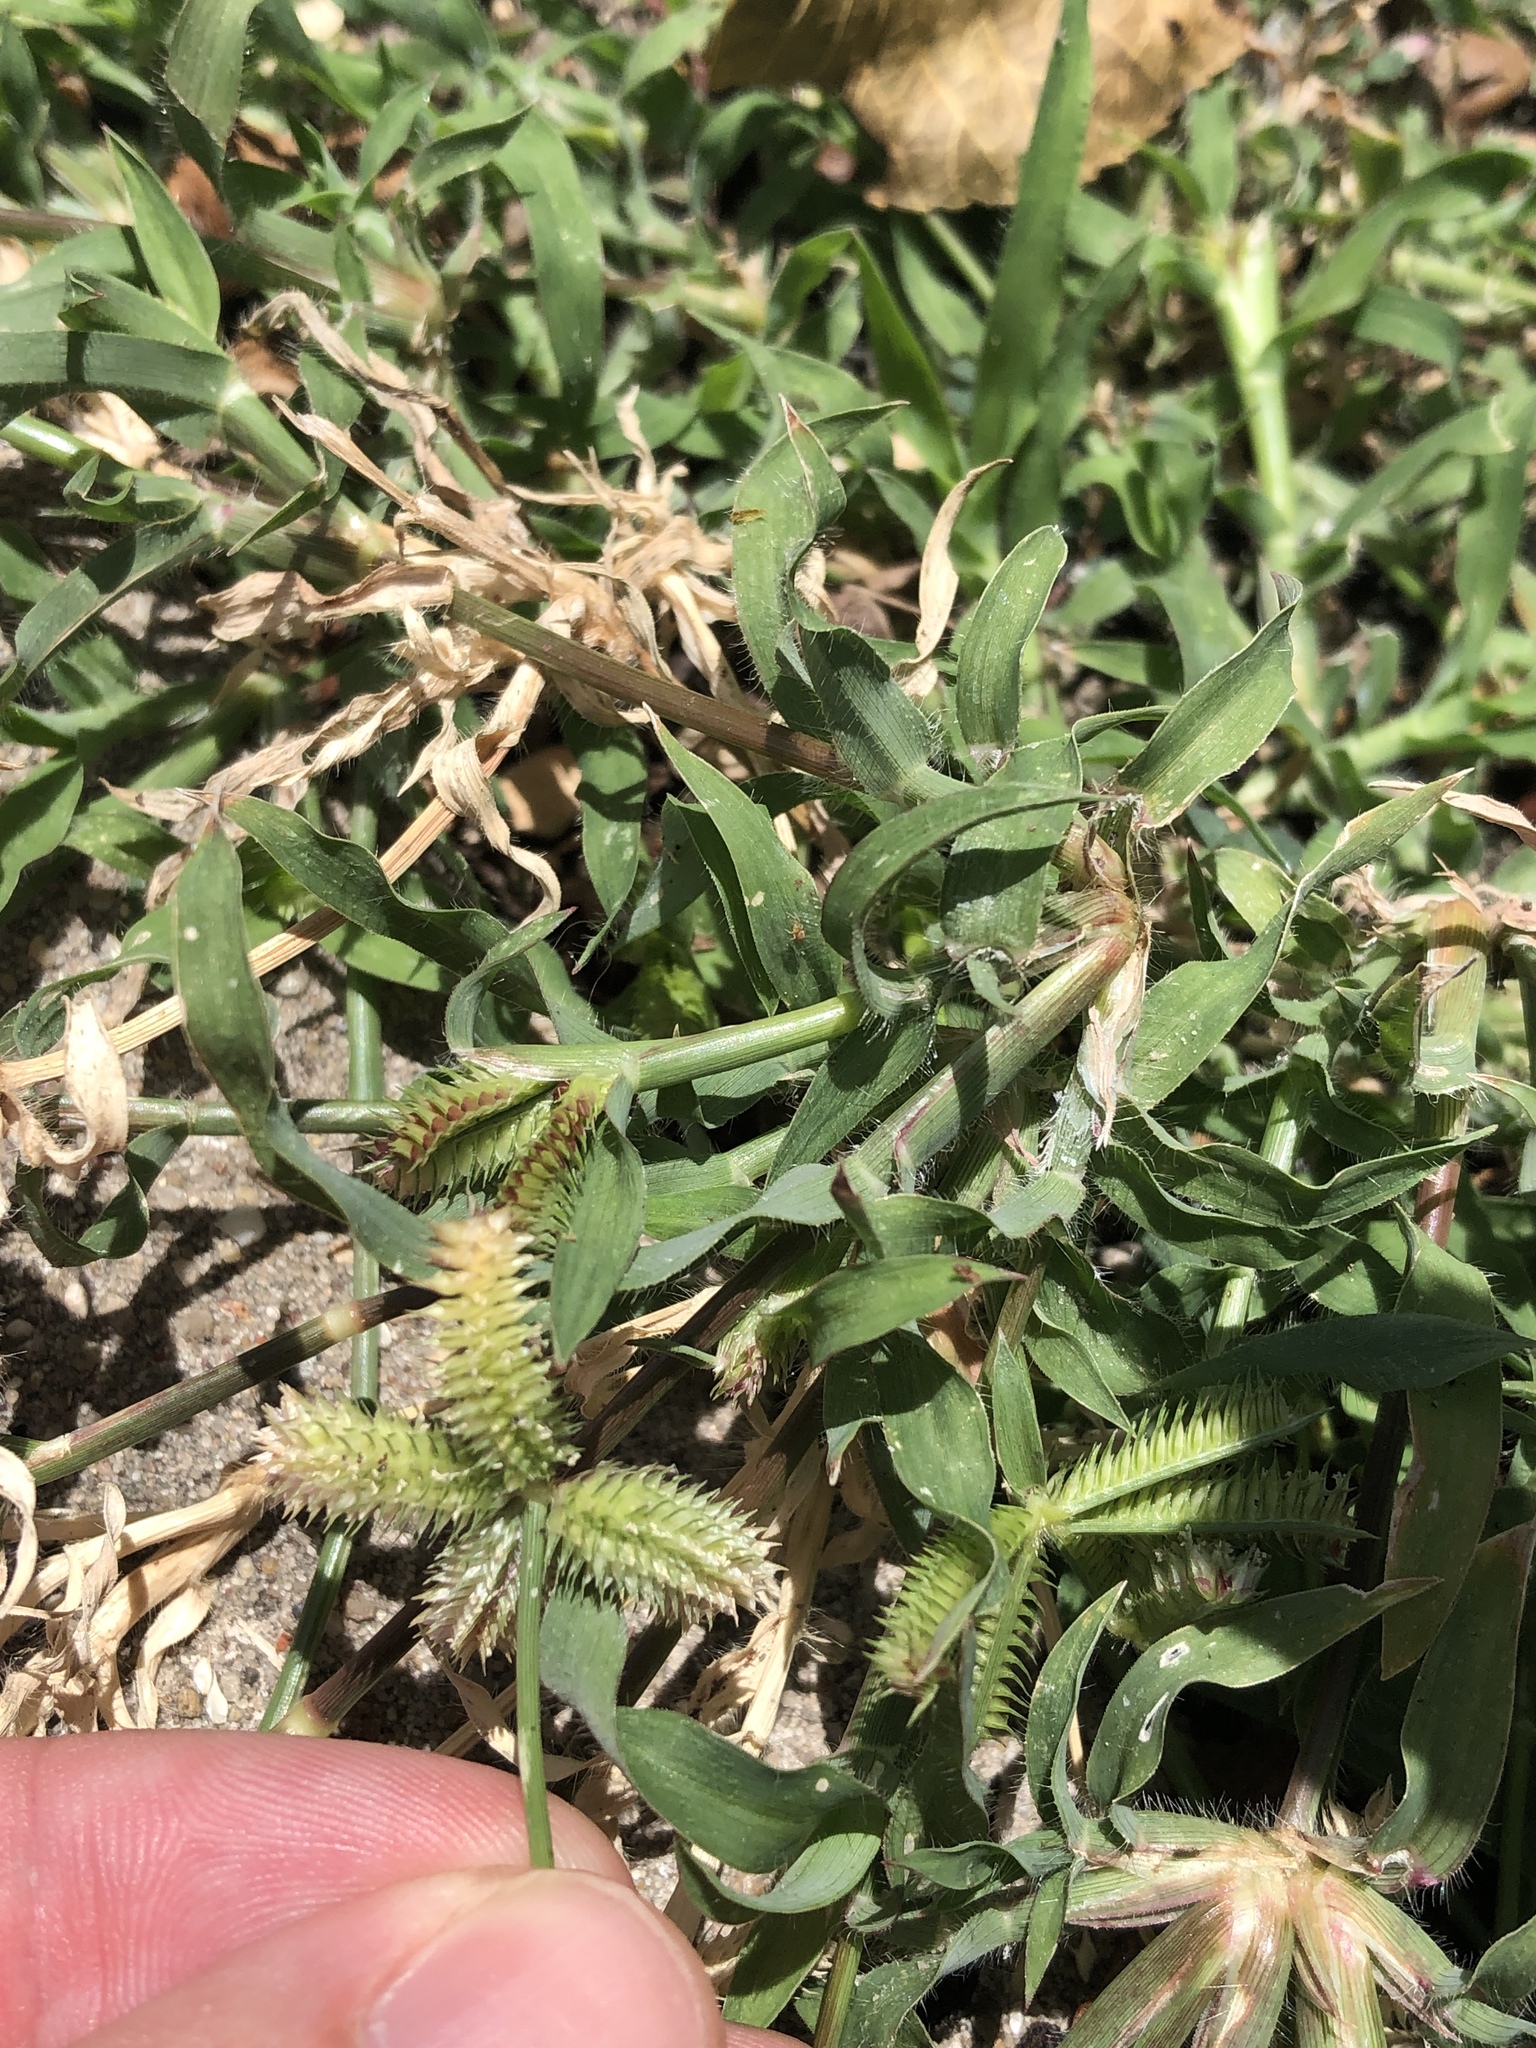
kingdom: Plantae
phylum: Tracheophyta
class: Liliopsida
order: Poales
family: Poaceae
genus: Dactyloctenium
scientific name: Dactyloctenium aegyptium
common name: Egyptian grass
